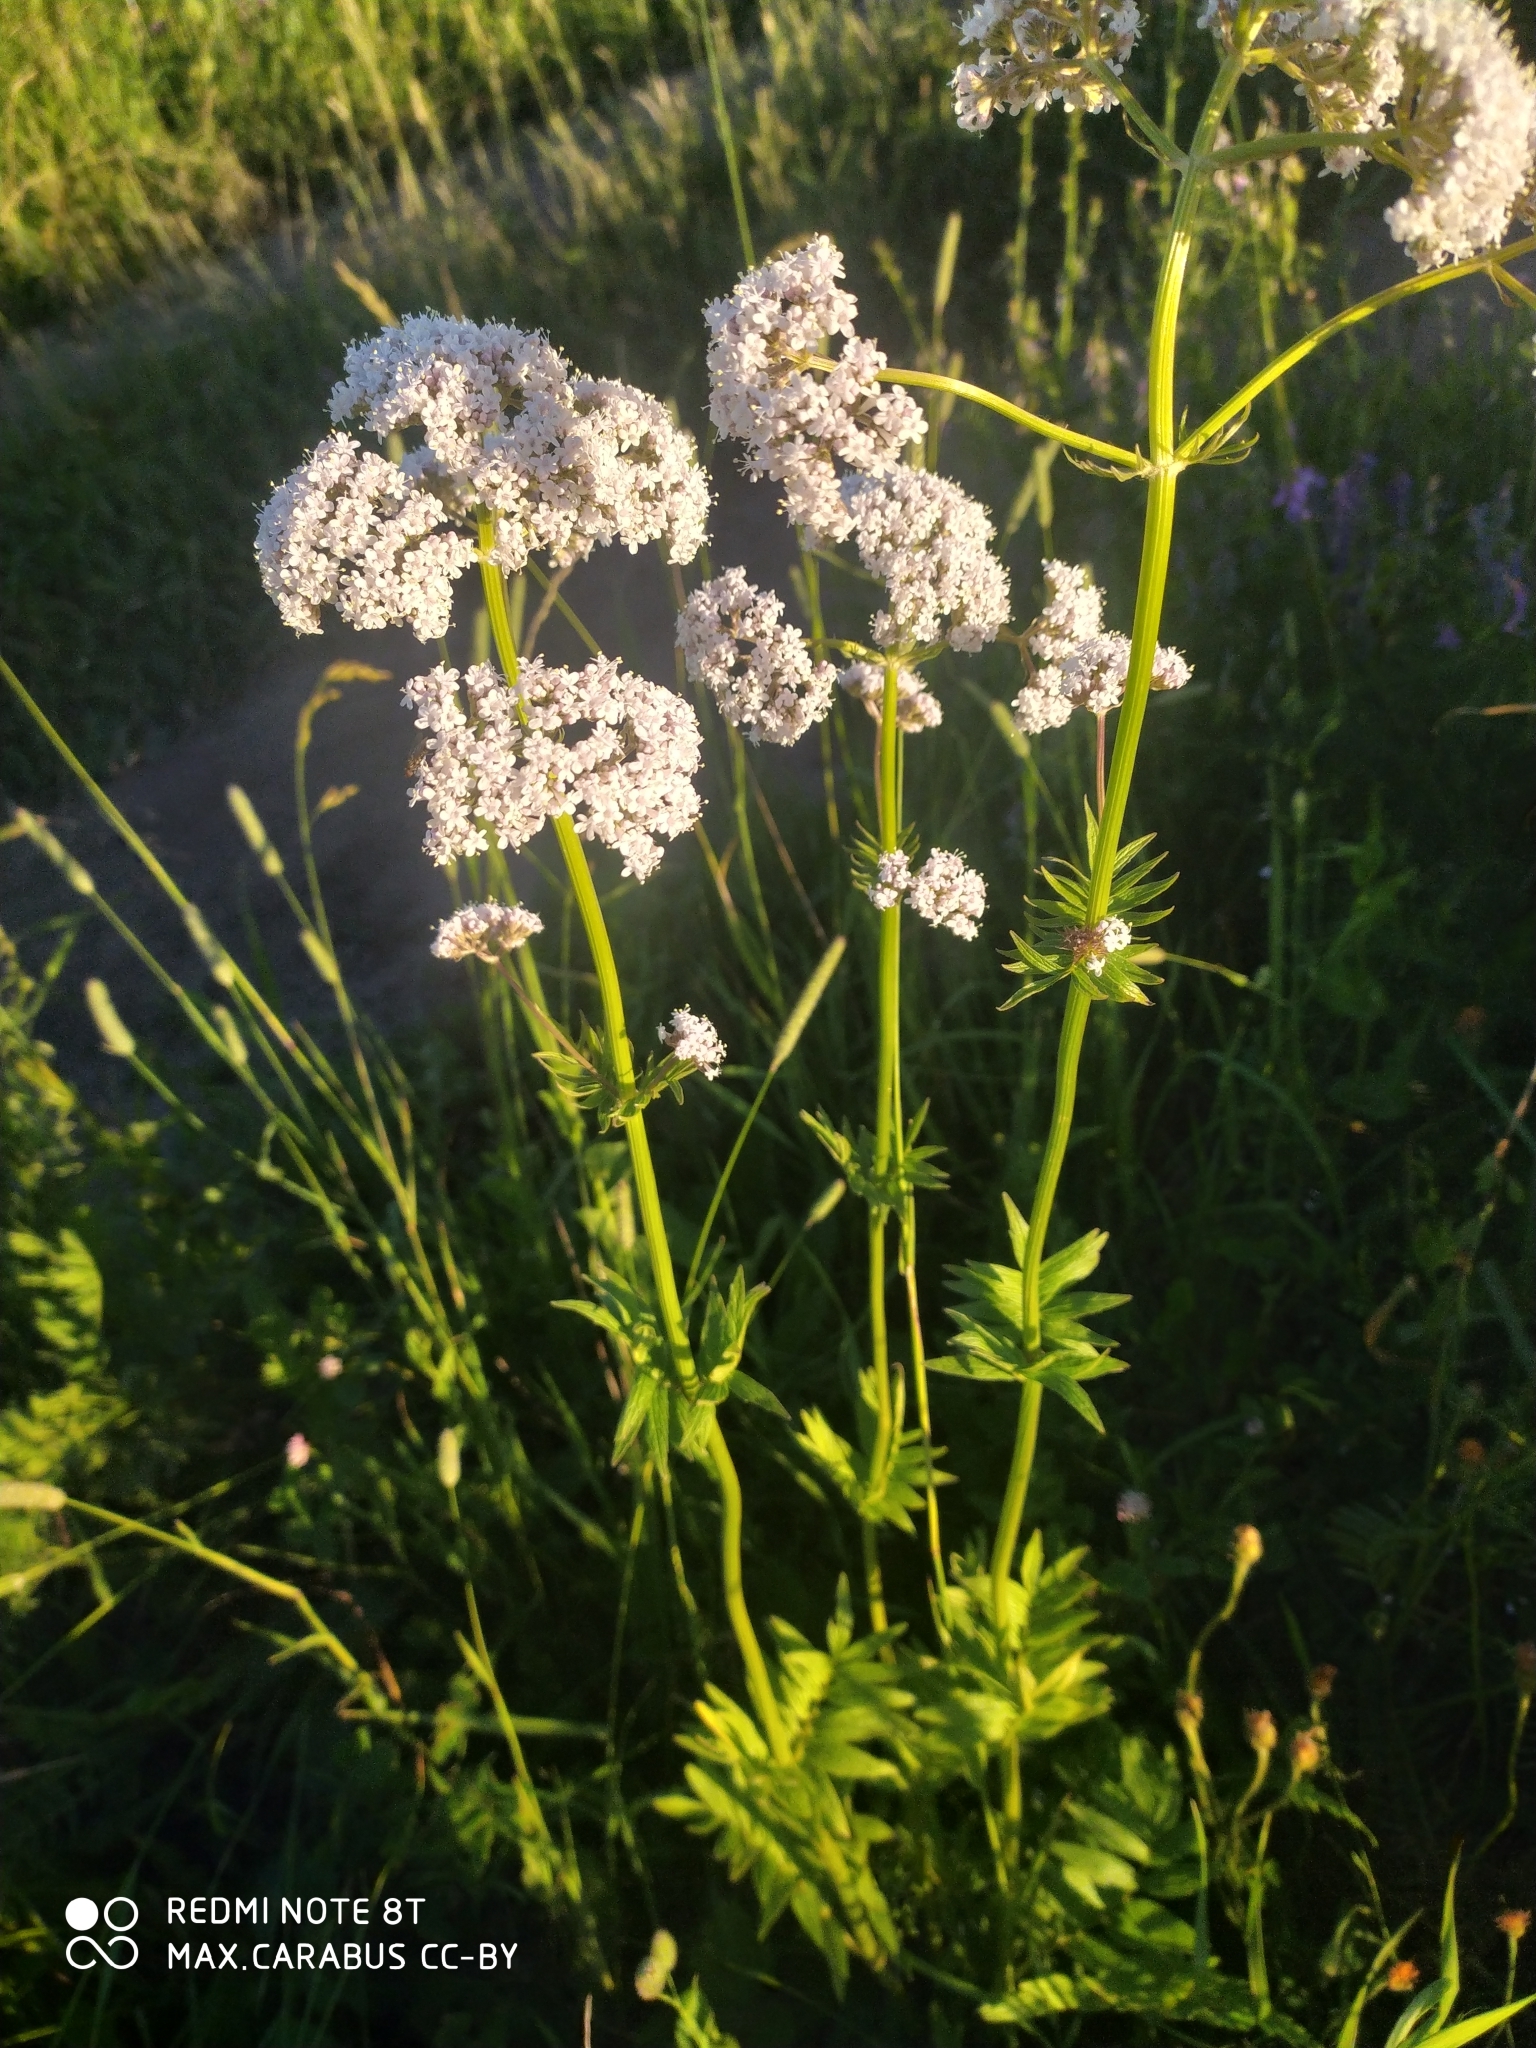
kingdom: Plantae
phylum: Tracheophyta
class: Magnoliopsida
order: Dipsacales
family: Caprifoliaceae
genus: Valeriana
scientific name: Valeriana officinalis
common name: Common valerian
